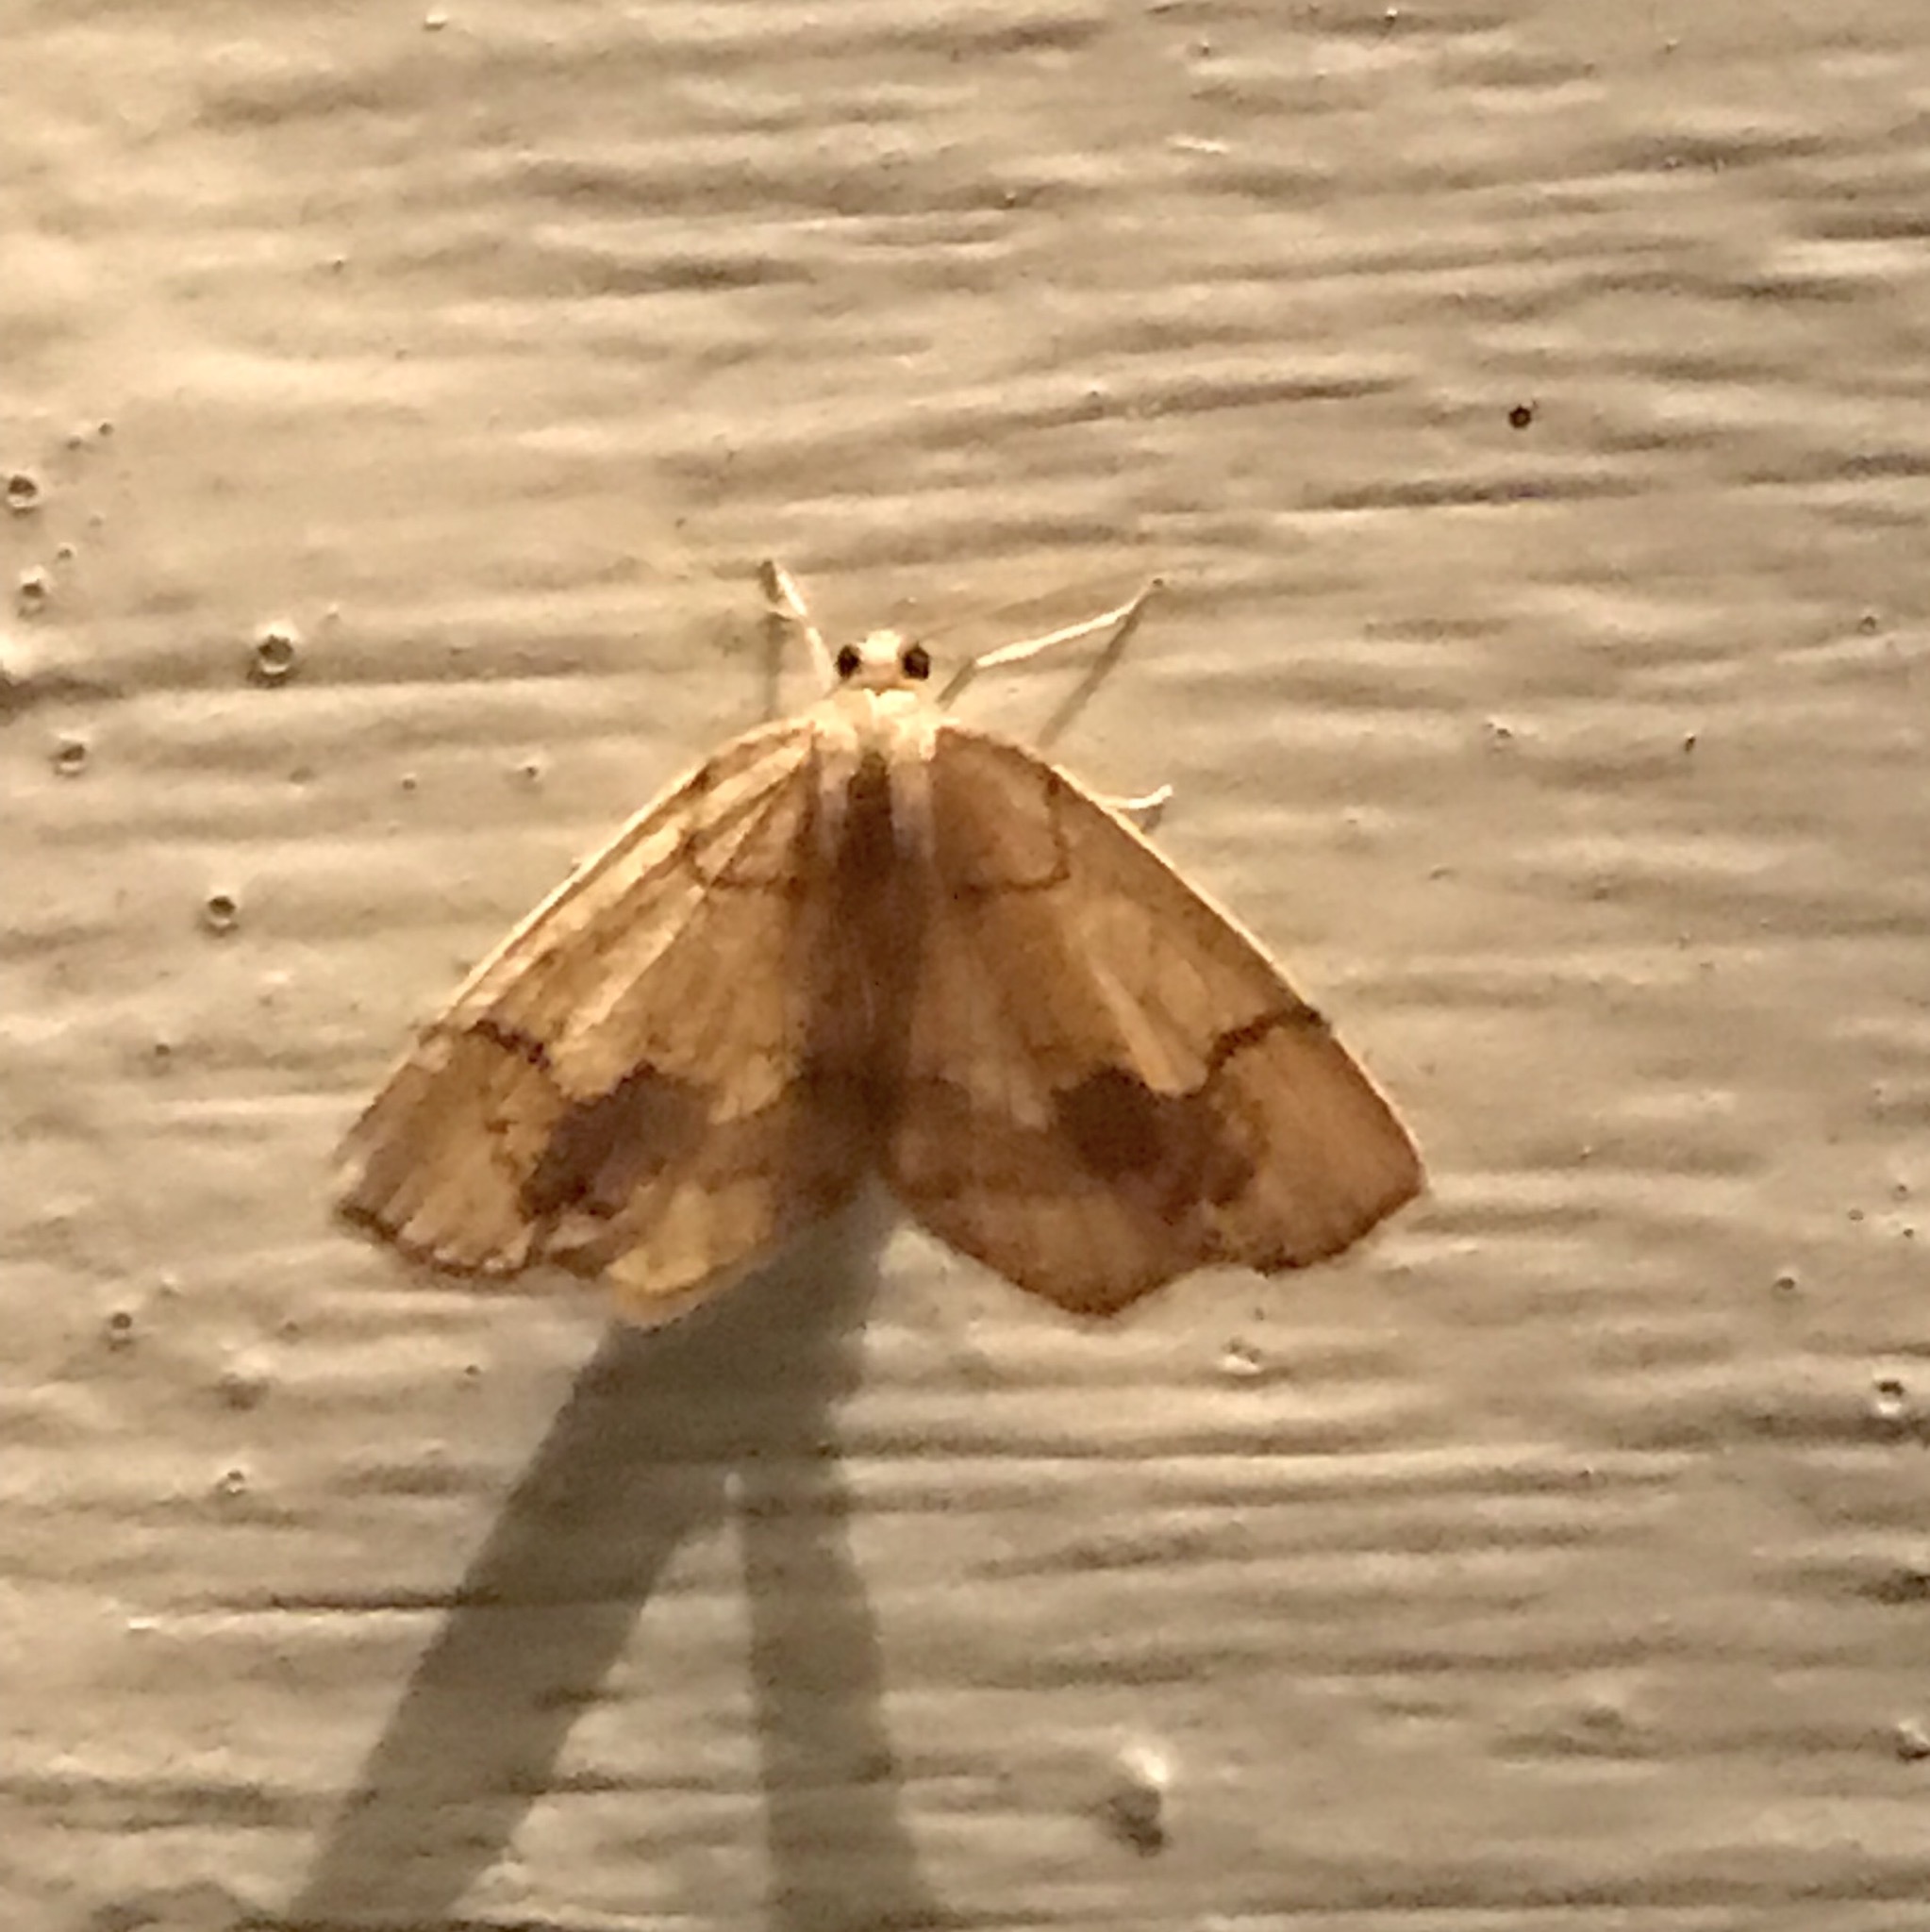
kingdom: Animalia
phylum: Arthropoda
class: Insecta
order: Lepidoptera
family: Geometridae
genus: Nematocampa
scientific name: Nematocampa resistaria
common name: Horned spanworm moth
